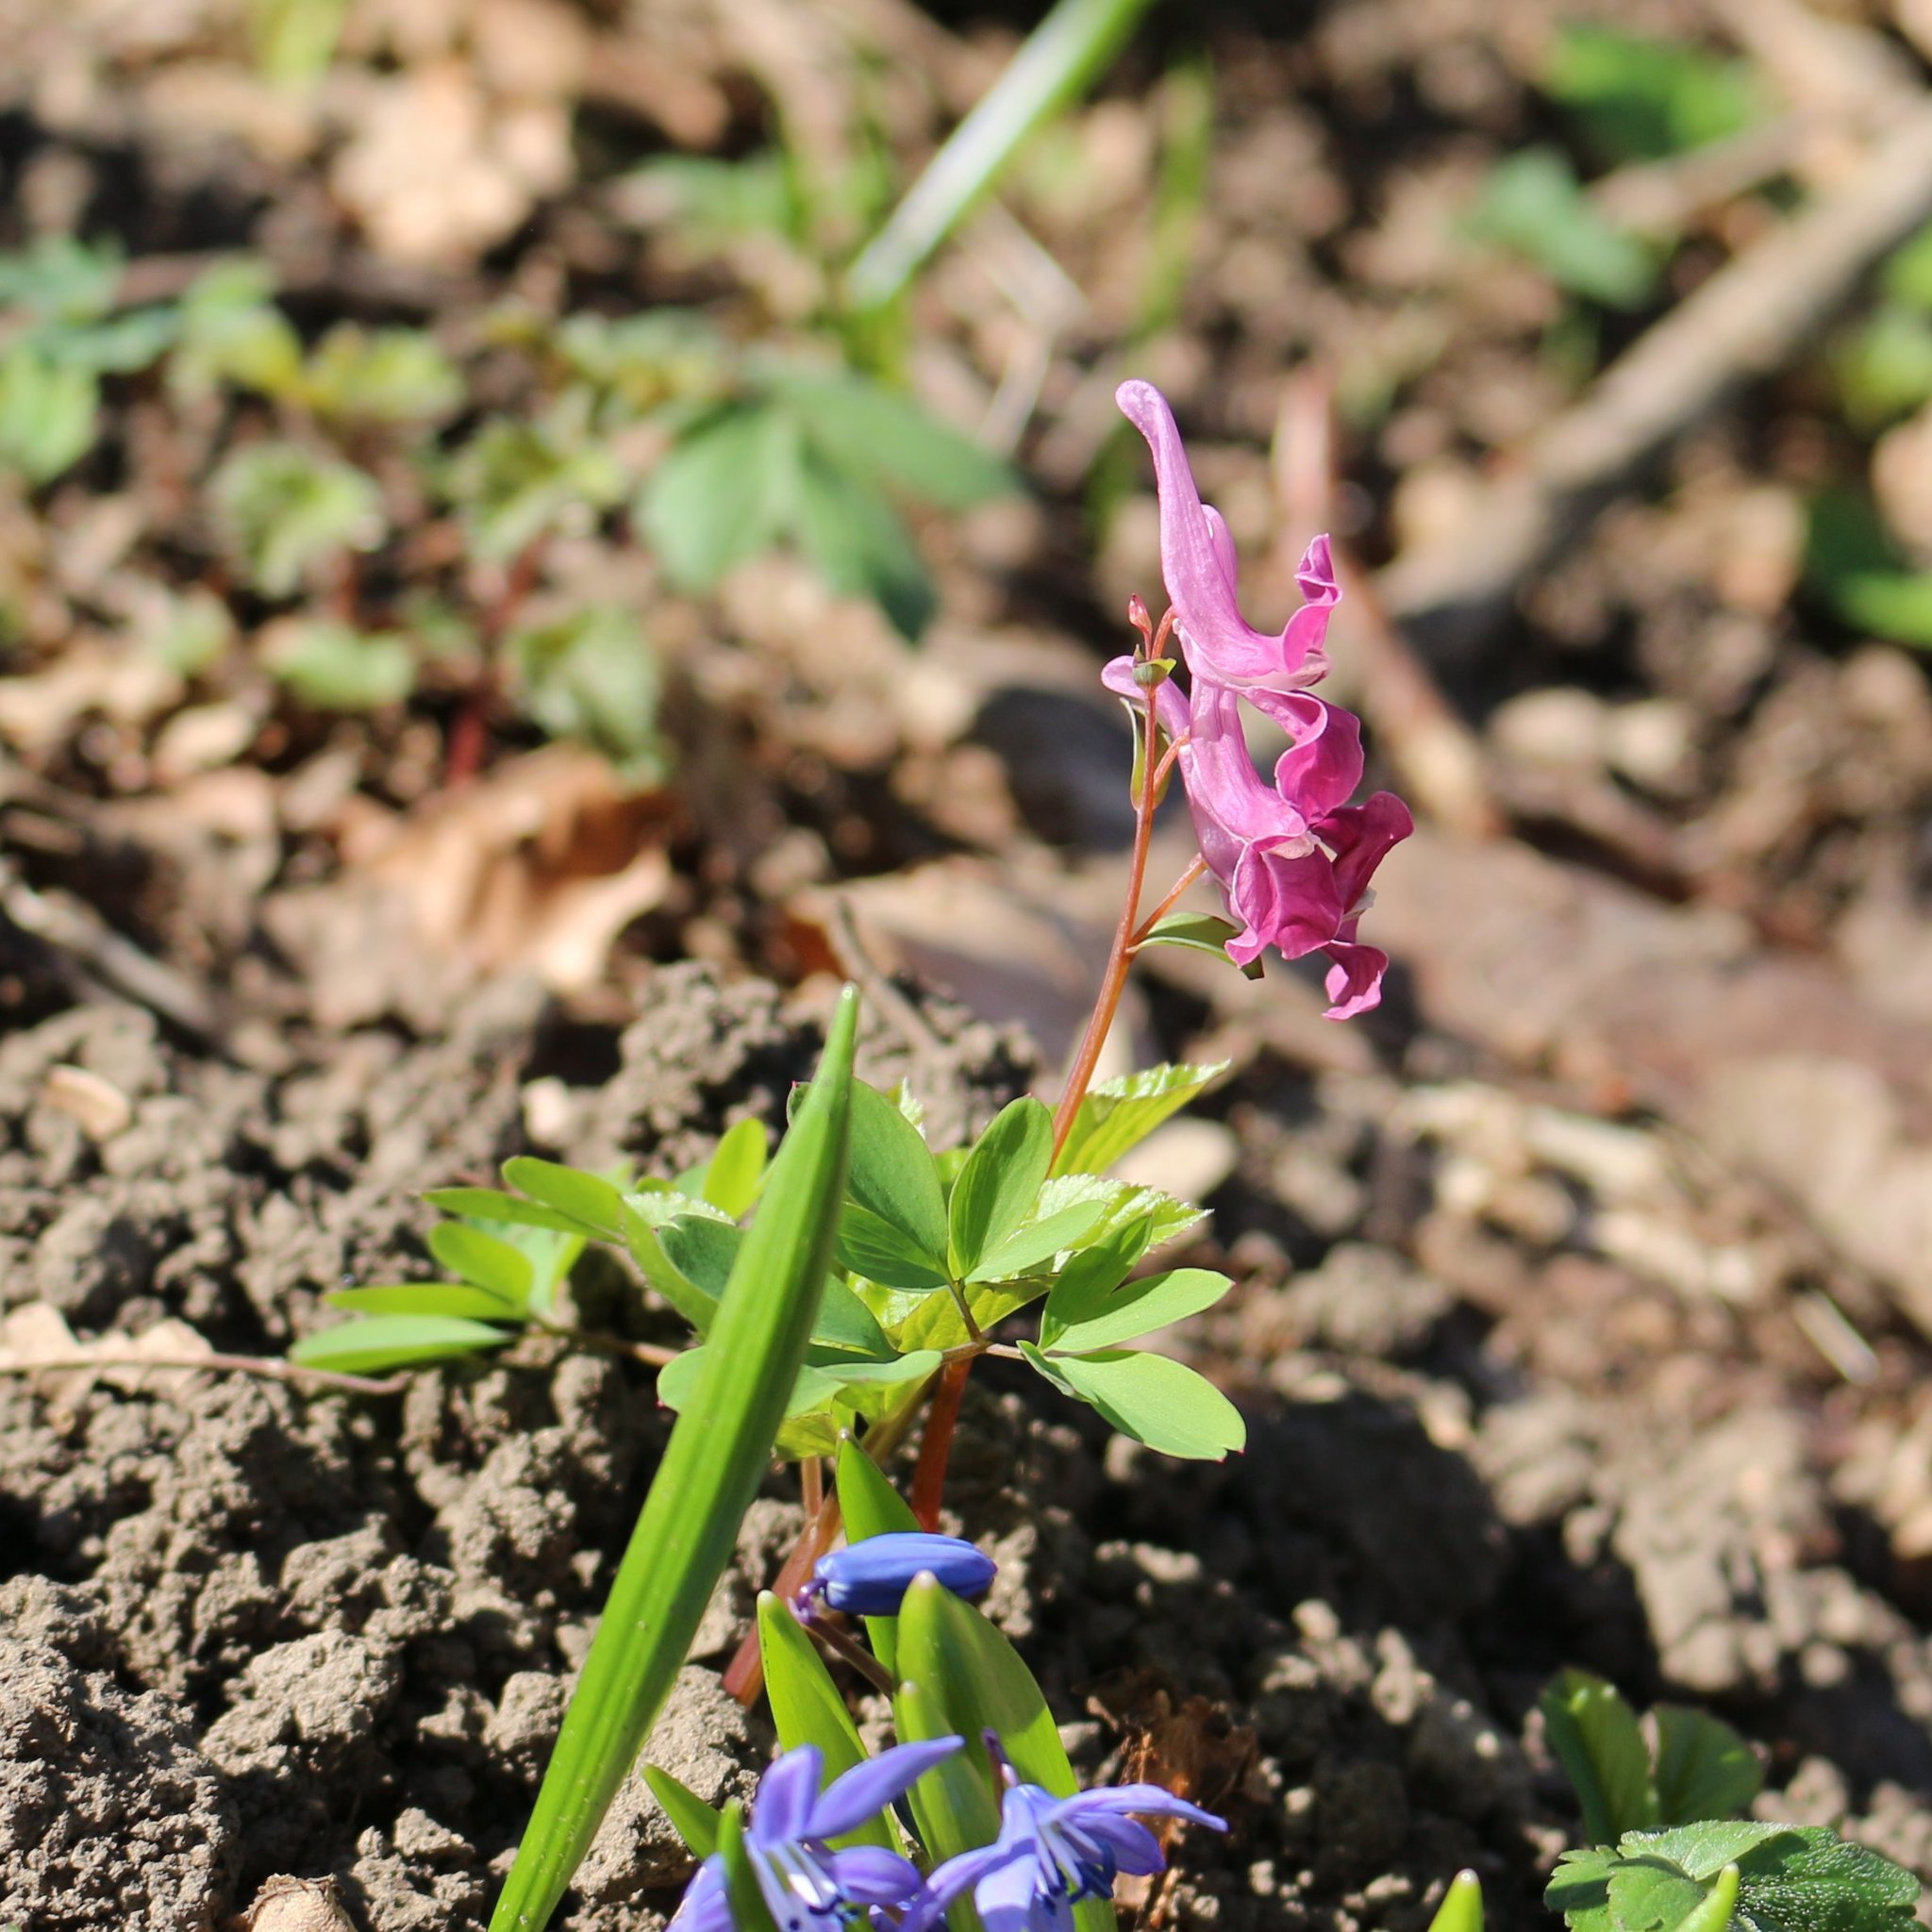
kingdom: Plantae
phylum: Tracheophyta
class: Magnoliopsida
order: Ranunculales
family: Papaveraceae
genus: Corydalis
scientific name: Corydalis caucasica
